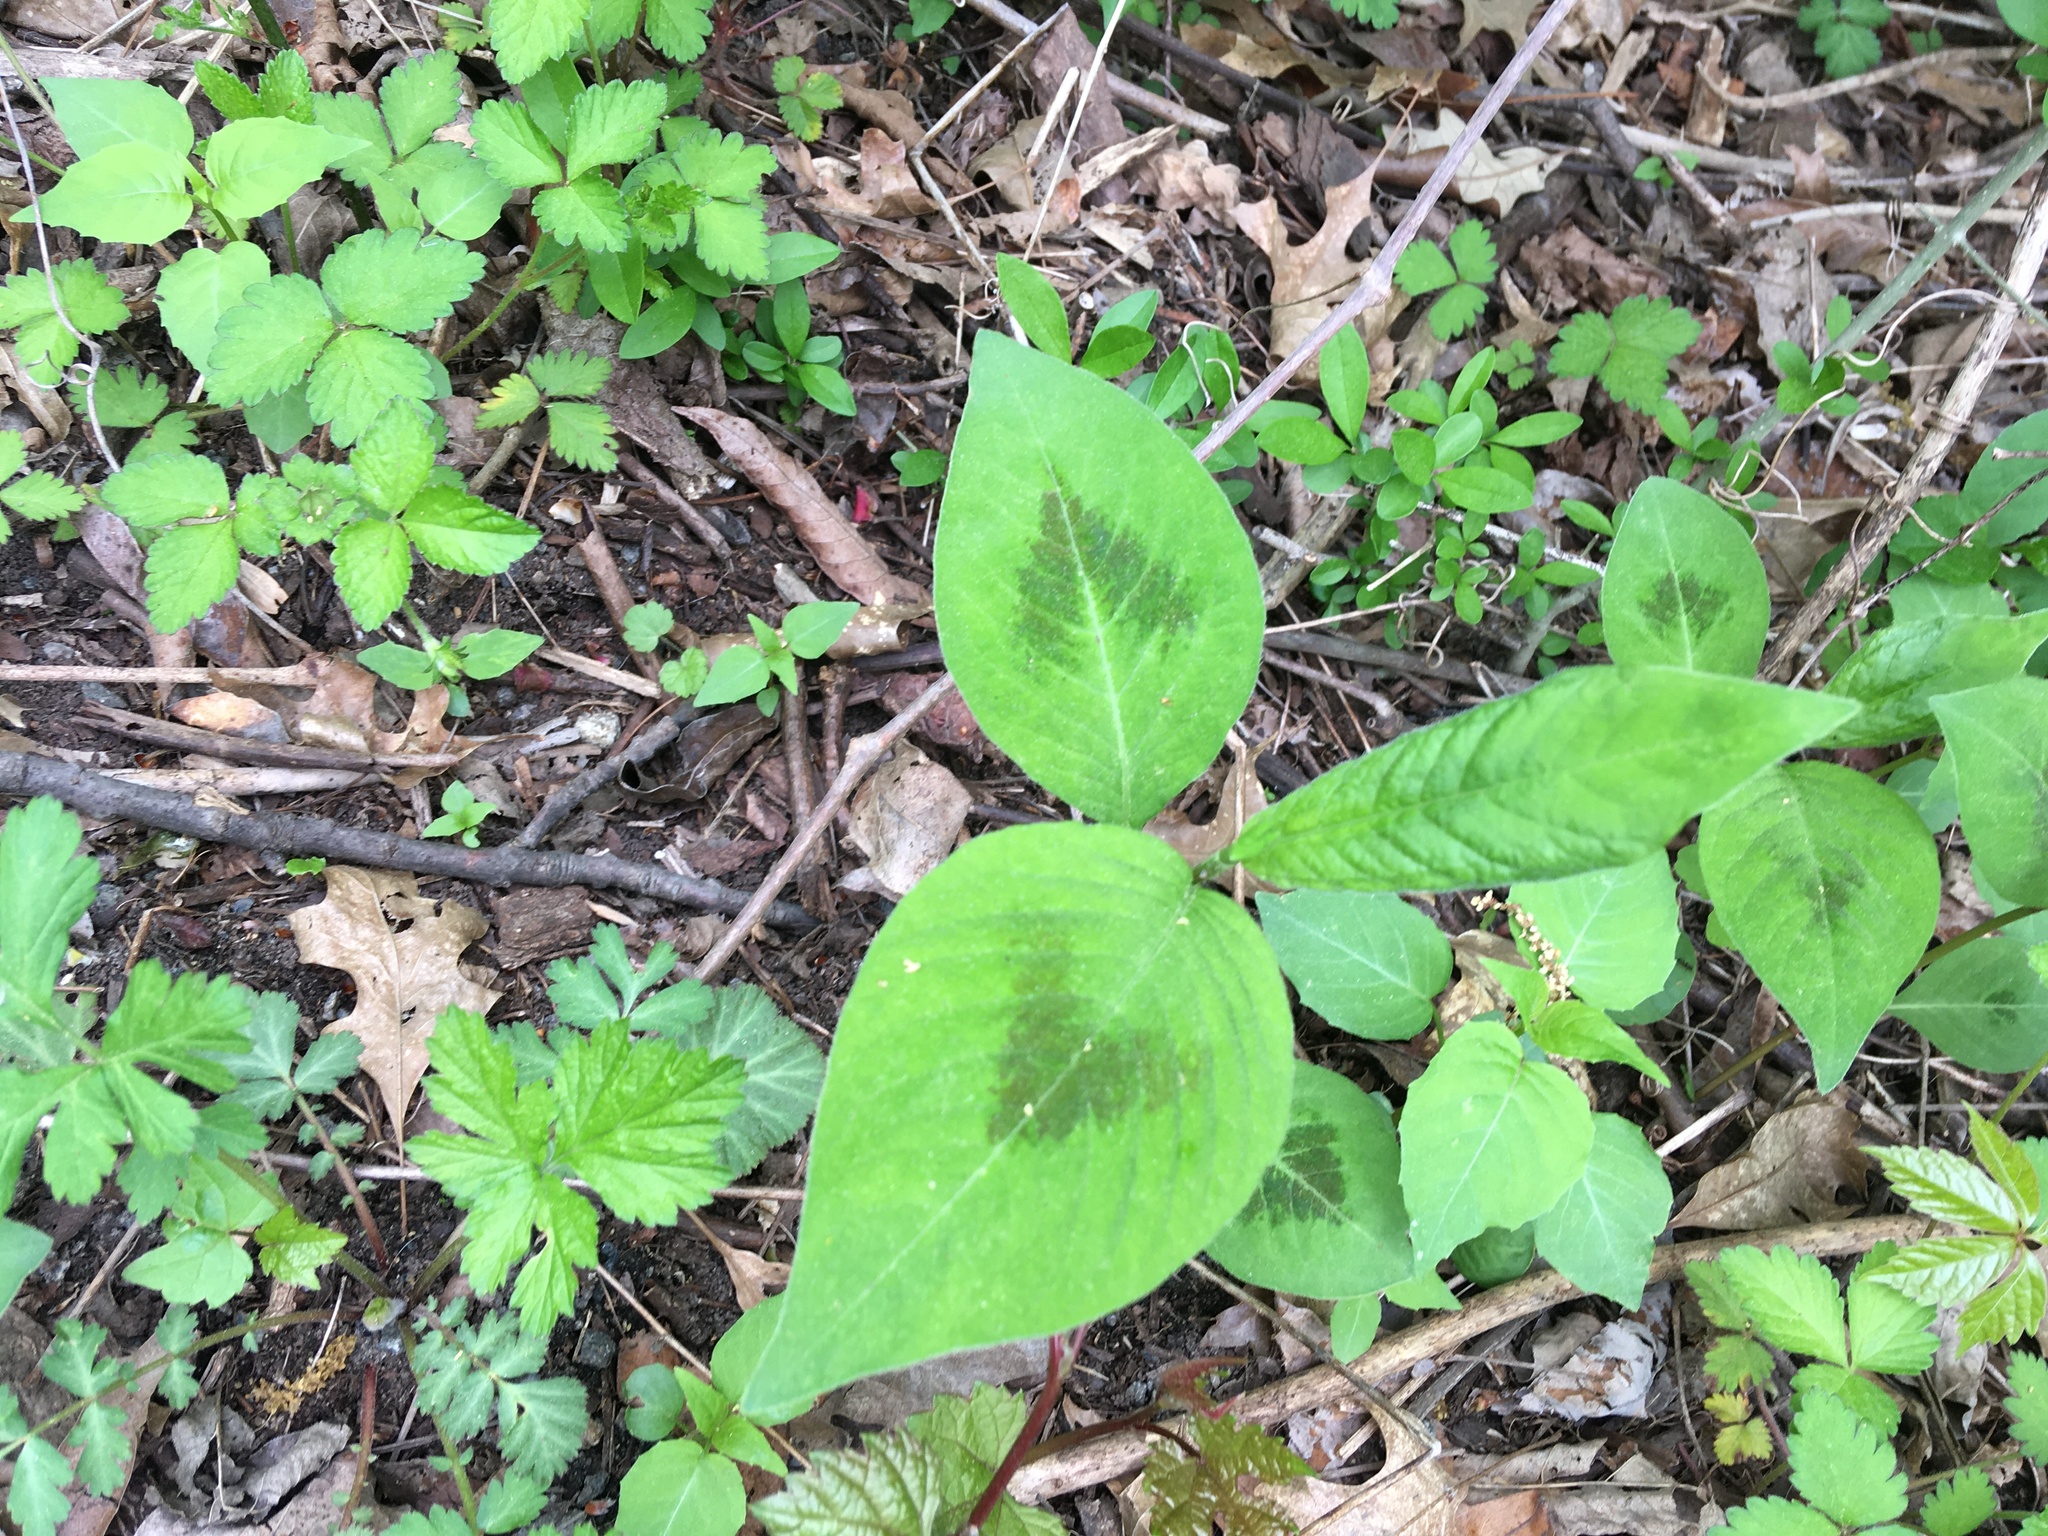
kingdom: Plantae
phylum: Tracheophyta
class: Magnoliopsida
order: Caryophyllales
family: Polygonaceae
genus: Persicaria
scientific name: Persicaria virginiana
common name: Jumpseed
